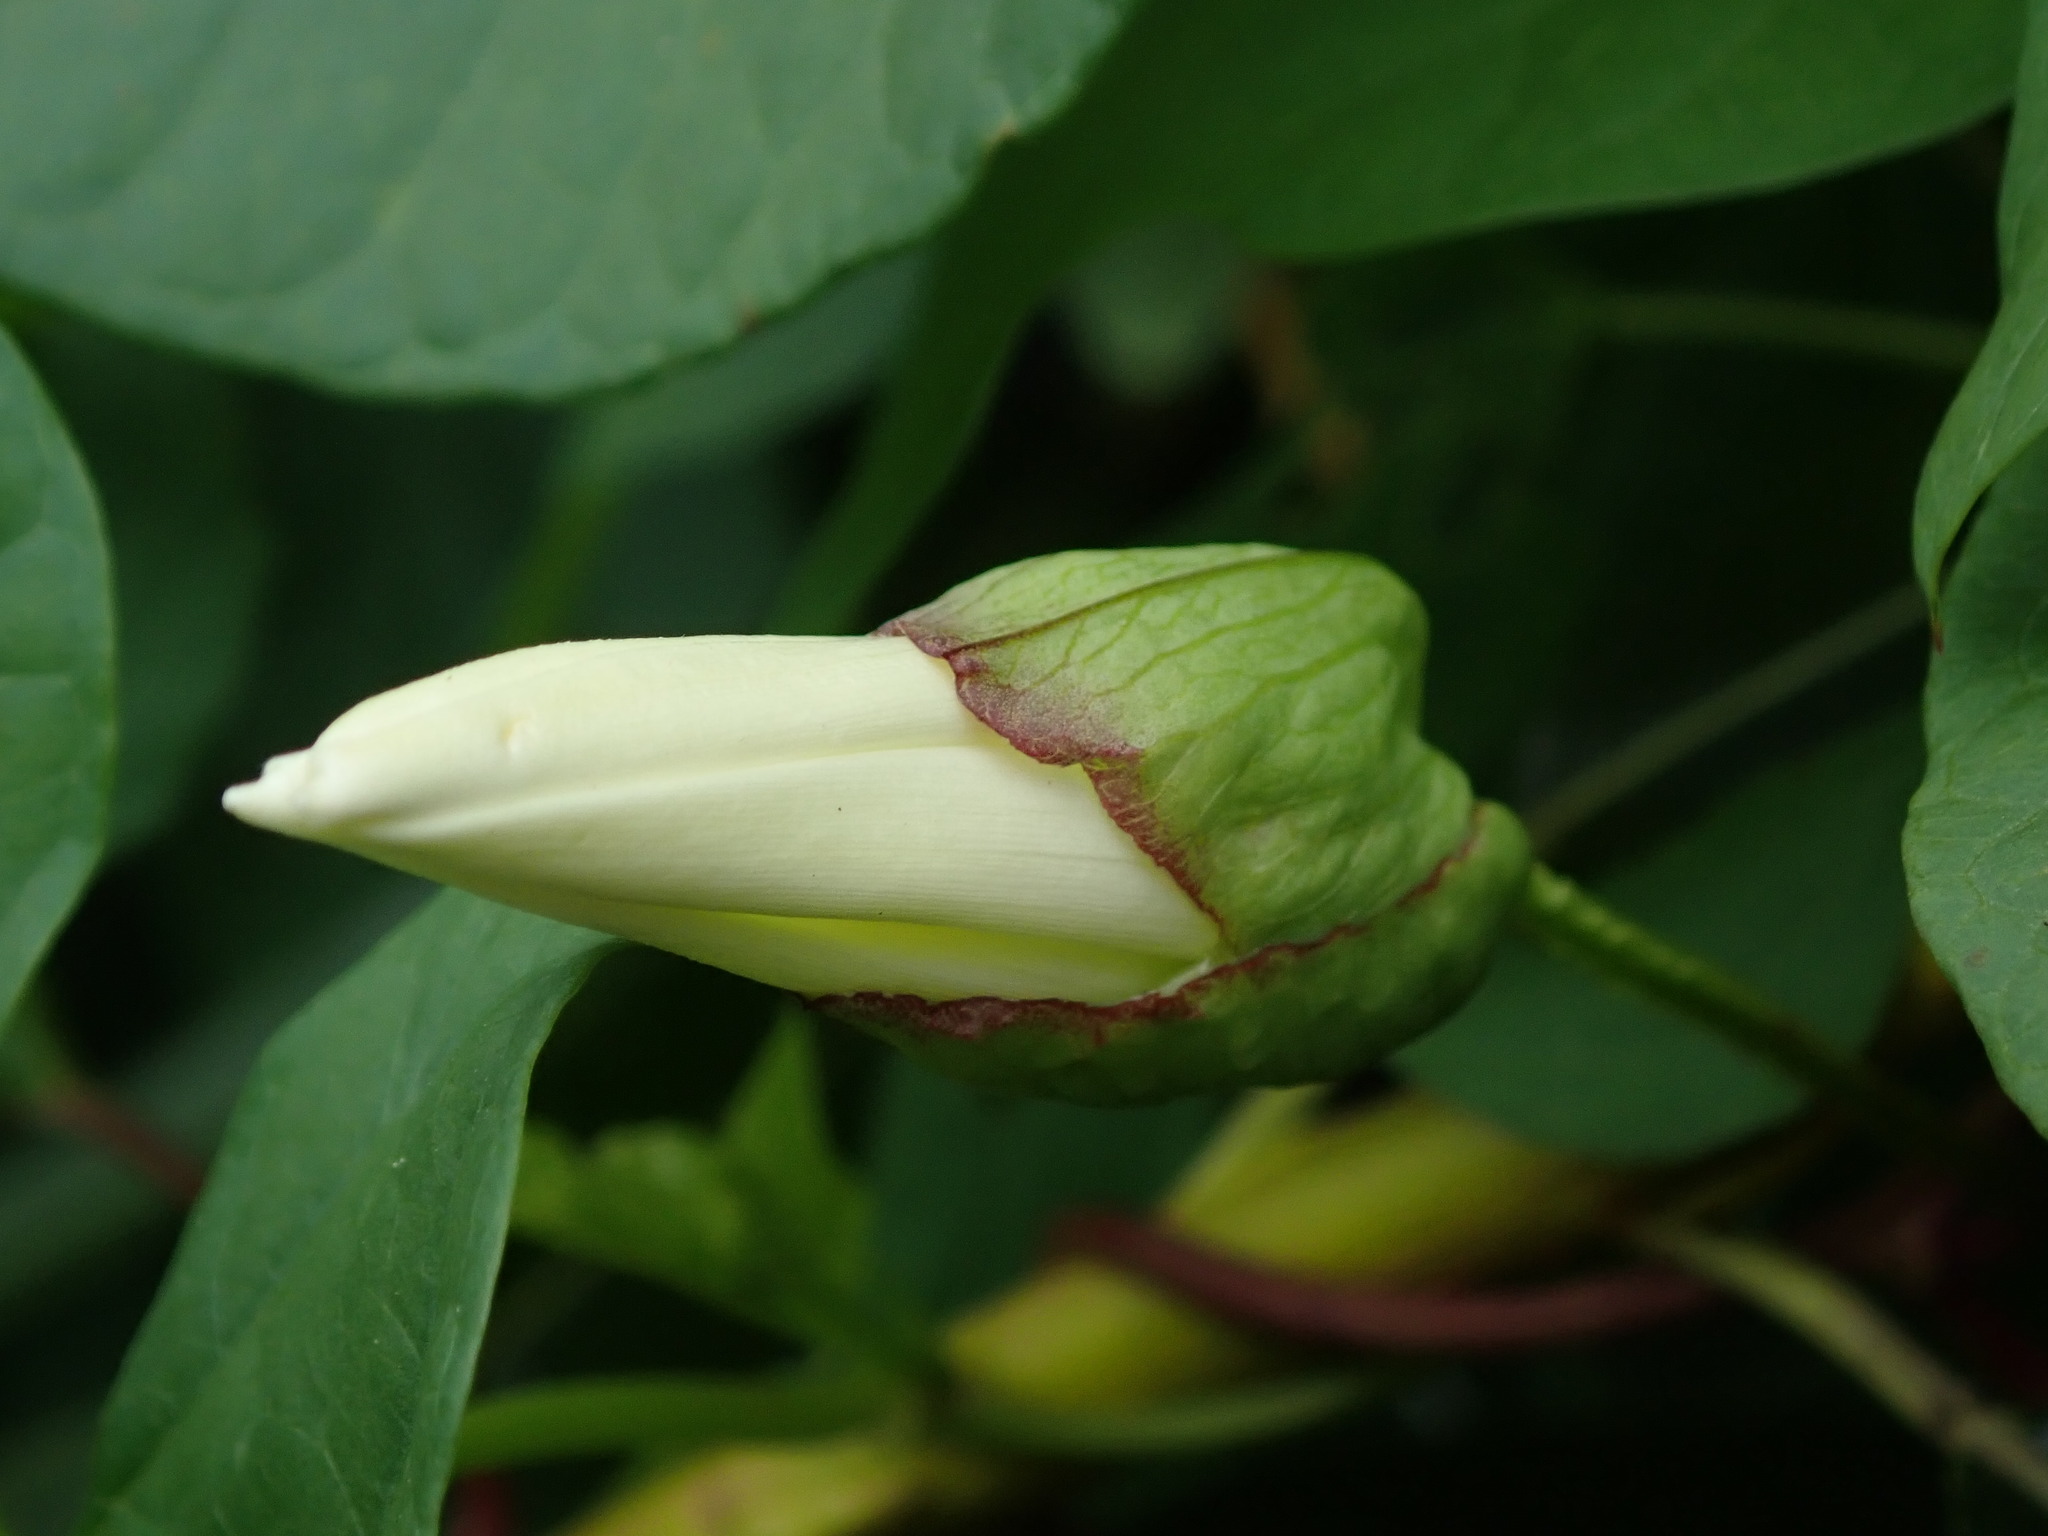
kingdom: Plantae
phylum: Tracheophyta
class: Magnoliopsida
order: Solanales
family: Convolvulaceae
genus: Calystegia
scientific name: Calystegia silvatica
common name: Large bindweed
